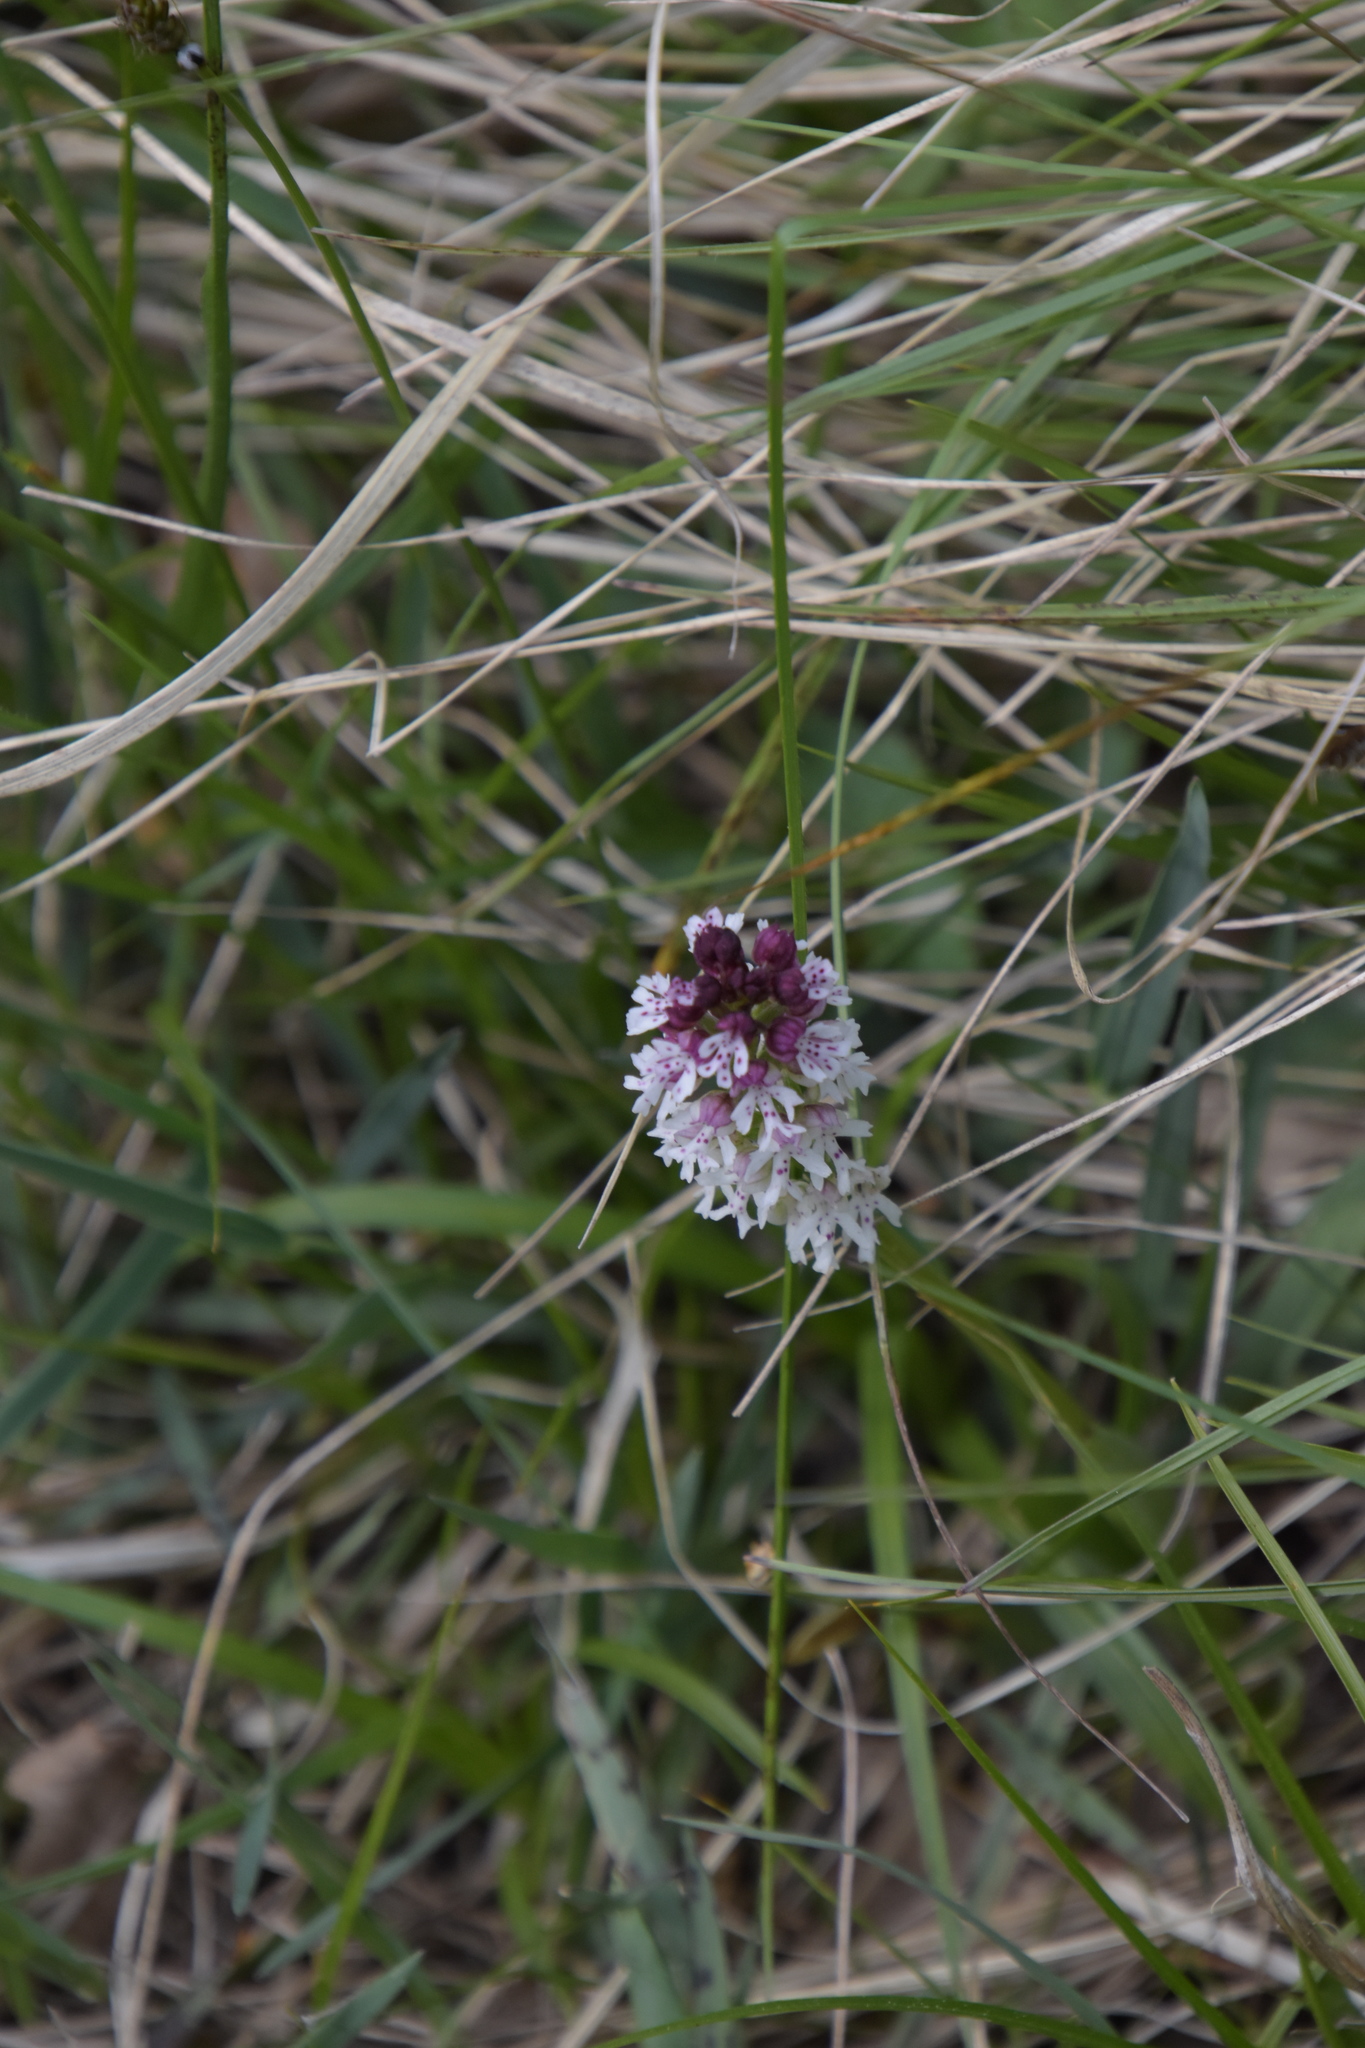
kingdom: Plantae
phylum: Tracheophyta
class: Liliopsida
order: Asparagales
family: Orchidaceae
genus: Neotinea
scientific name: Neotinea ustulata
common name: Burnt orchid
